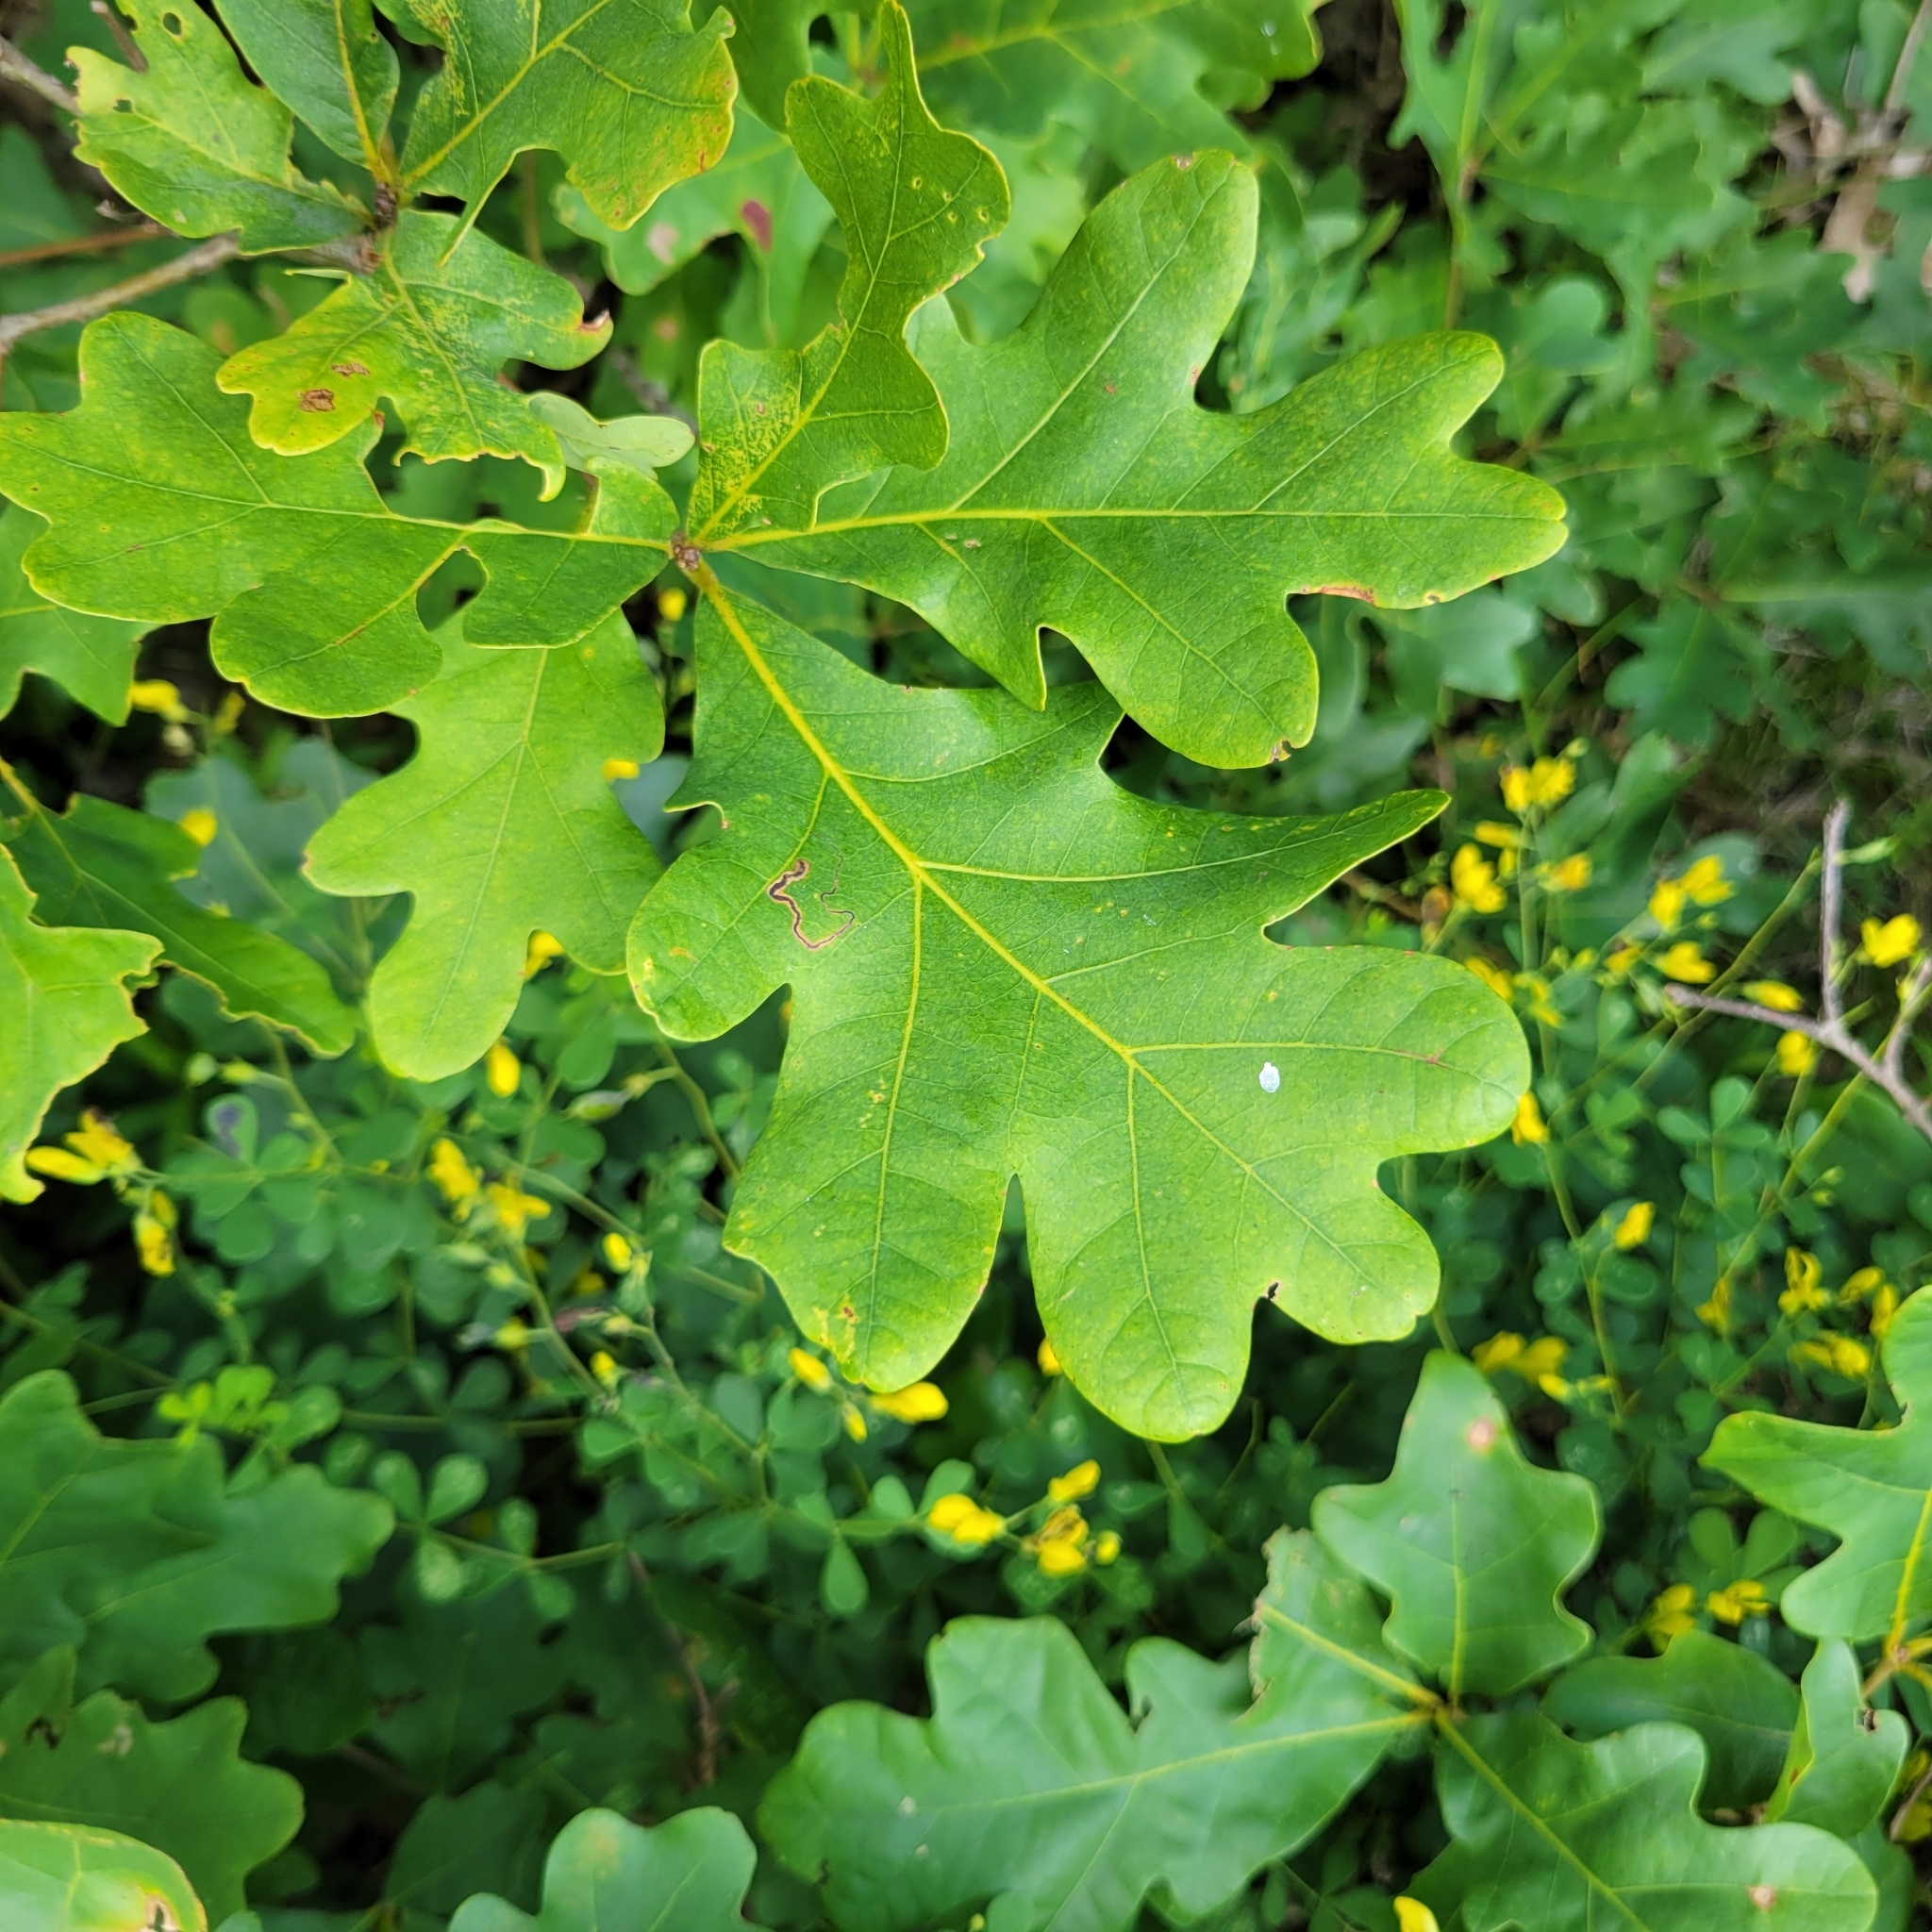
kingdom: Plantae
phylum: Tracheophyta
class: Magnoliopsida
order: Fagales
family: Fagaceae
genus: Quercus
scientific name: Quercus alba
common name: White oak
